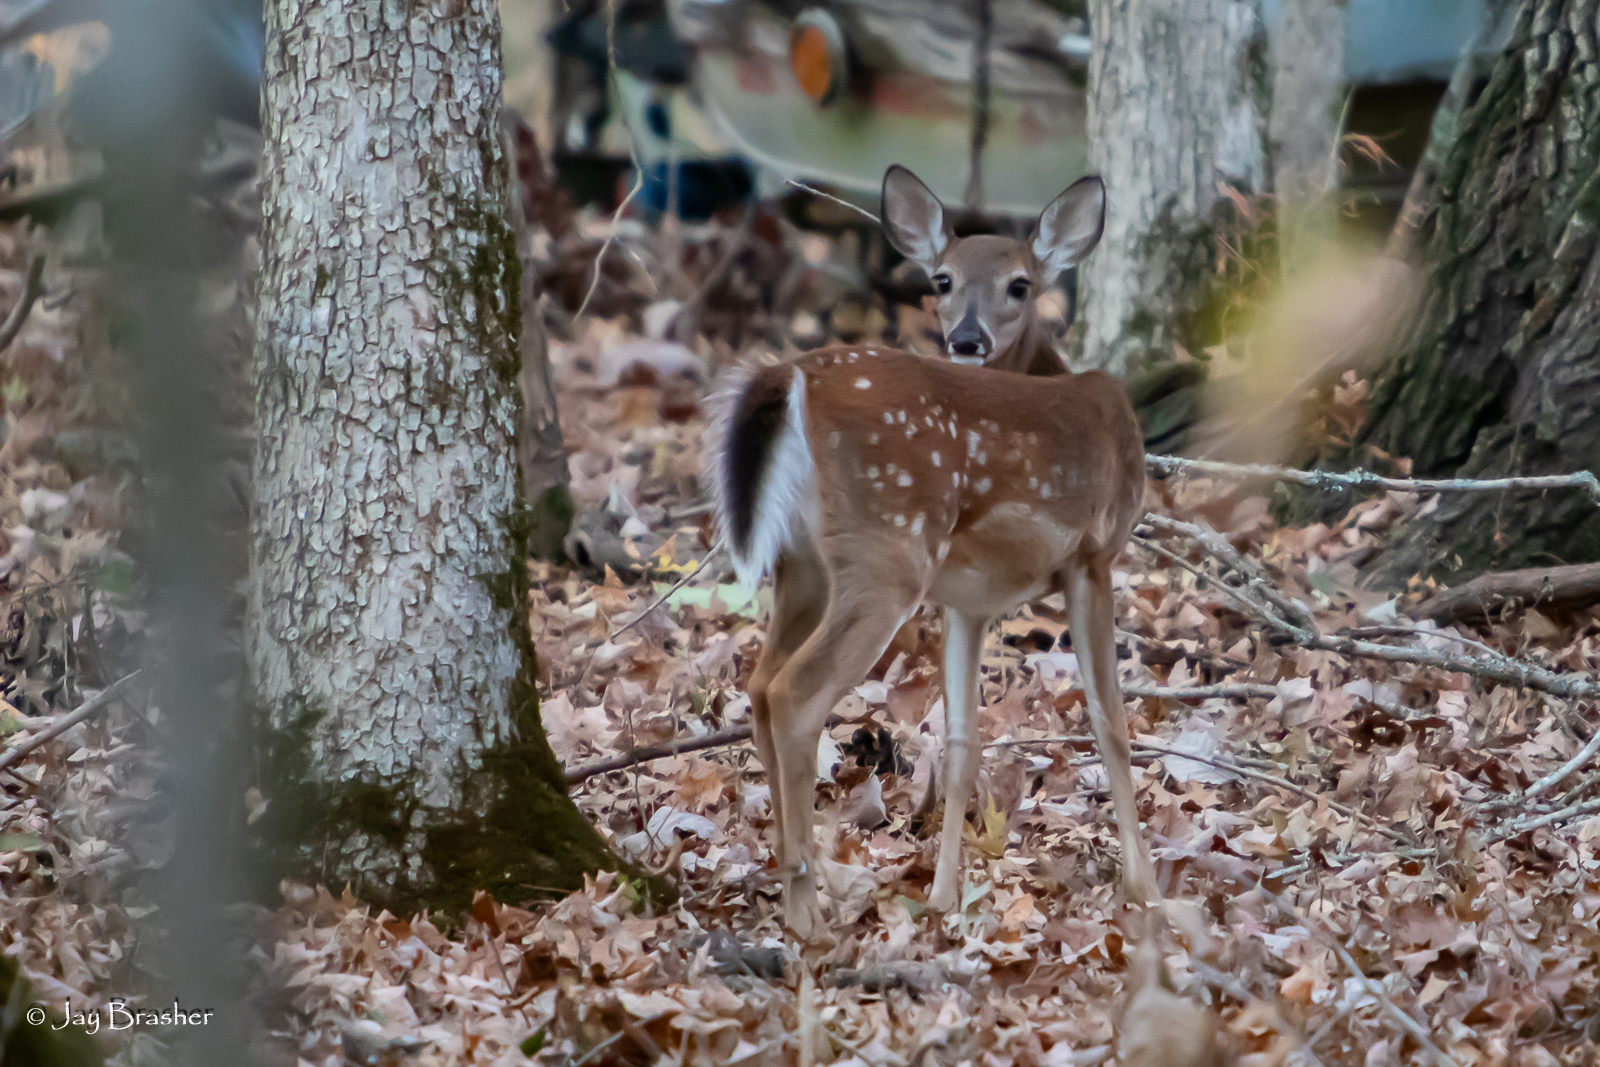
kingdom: Animalia
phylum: Chordata
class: Mammalia
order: Artiodactyla
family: Cervidae
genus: Odocoileus
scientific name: Odocoileus virginianus
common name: White-tailed deer
